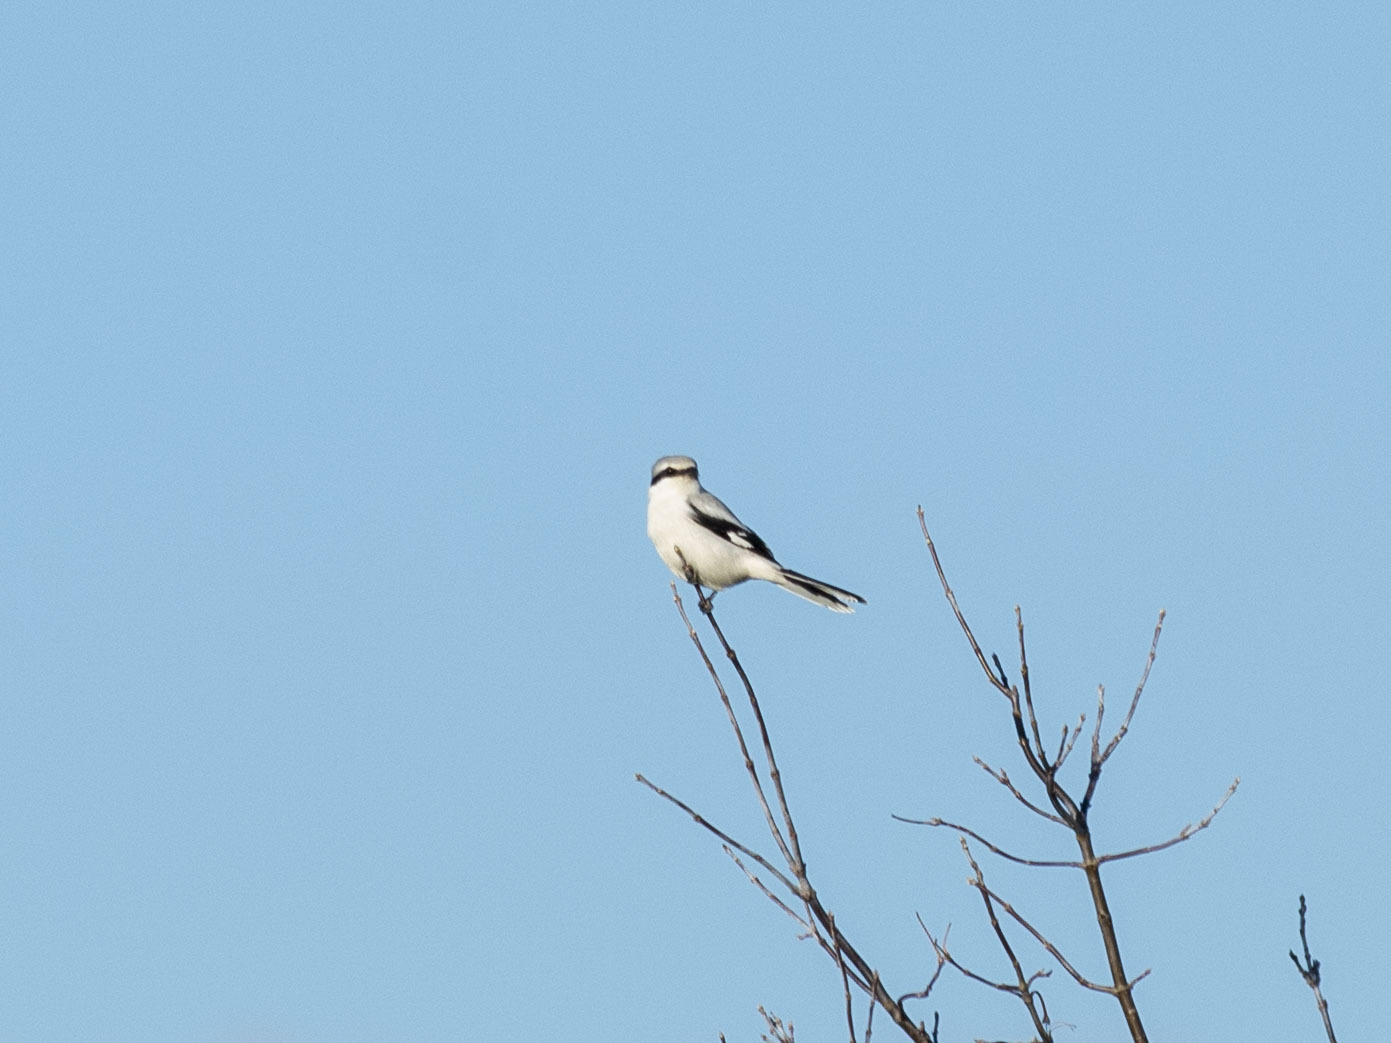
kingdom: Animalia
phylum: Chordata
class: Aves
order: Passeriformes
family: Laniidae
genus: Lanius
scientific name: Lanius excubitor
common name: Great grey shrike
